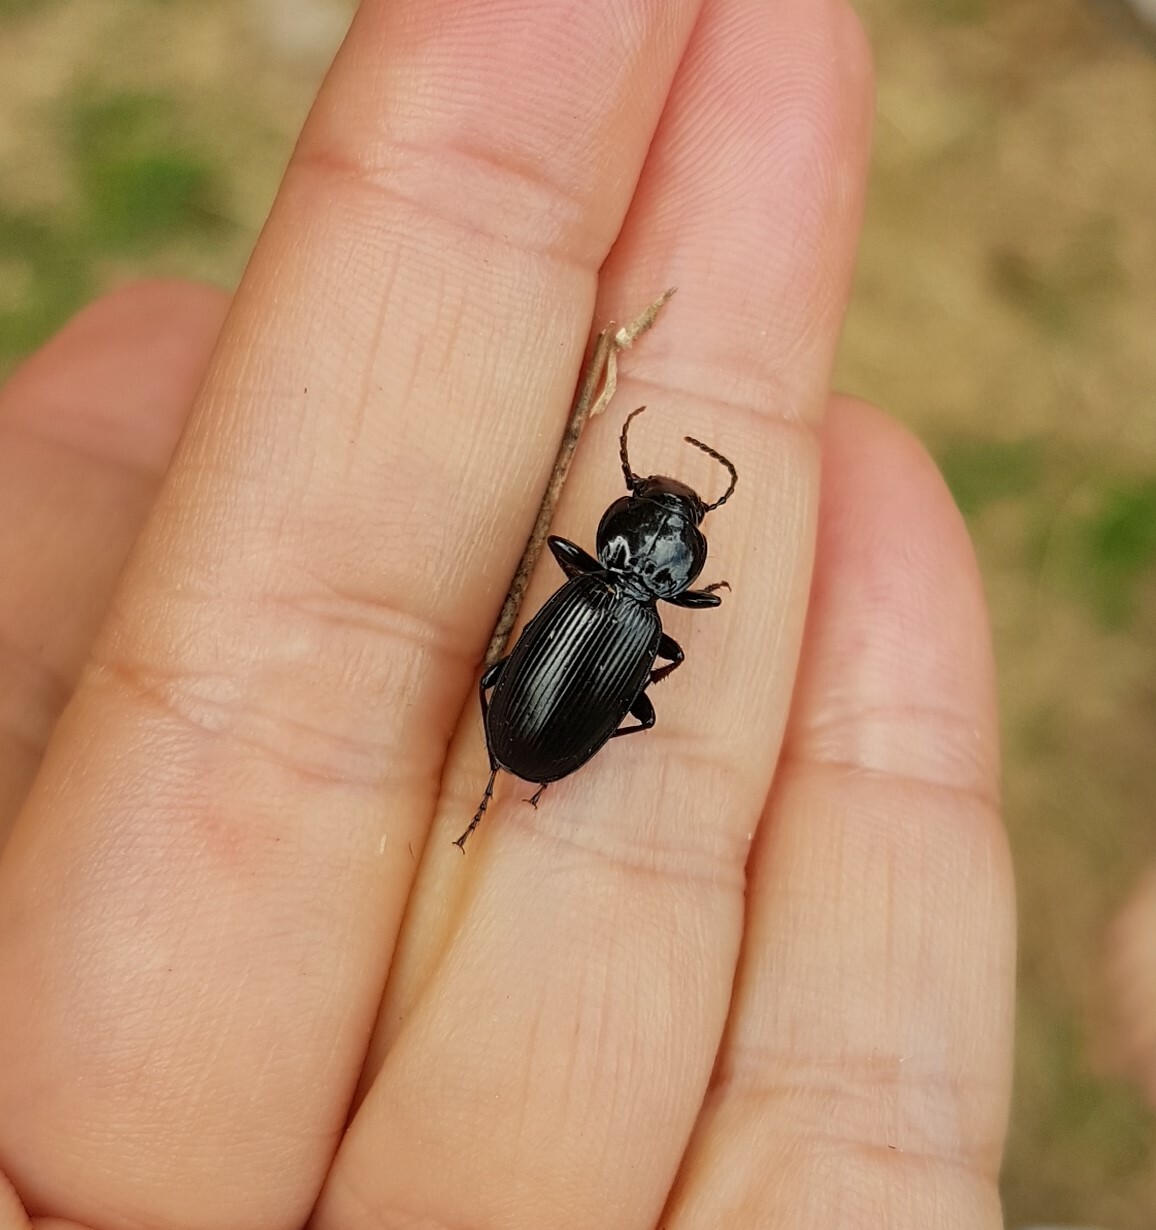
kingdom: Animalia
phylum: Arthropoda
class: Insecta
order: Coleoptera
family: Carabidae
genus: Pterostichus
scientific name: Pterostichus madidus
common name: Black clock
